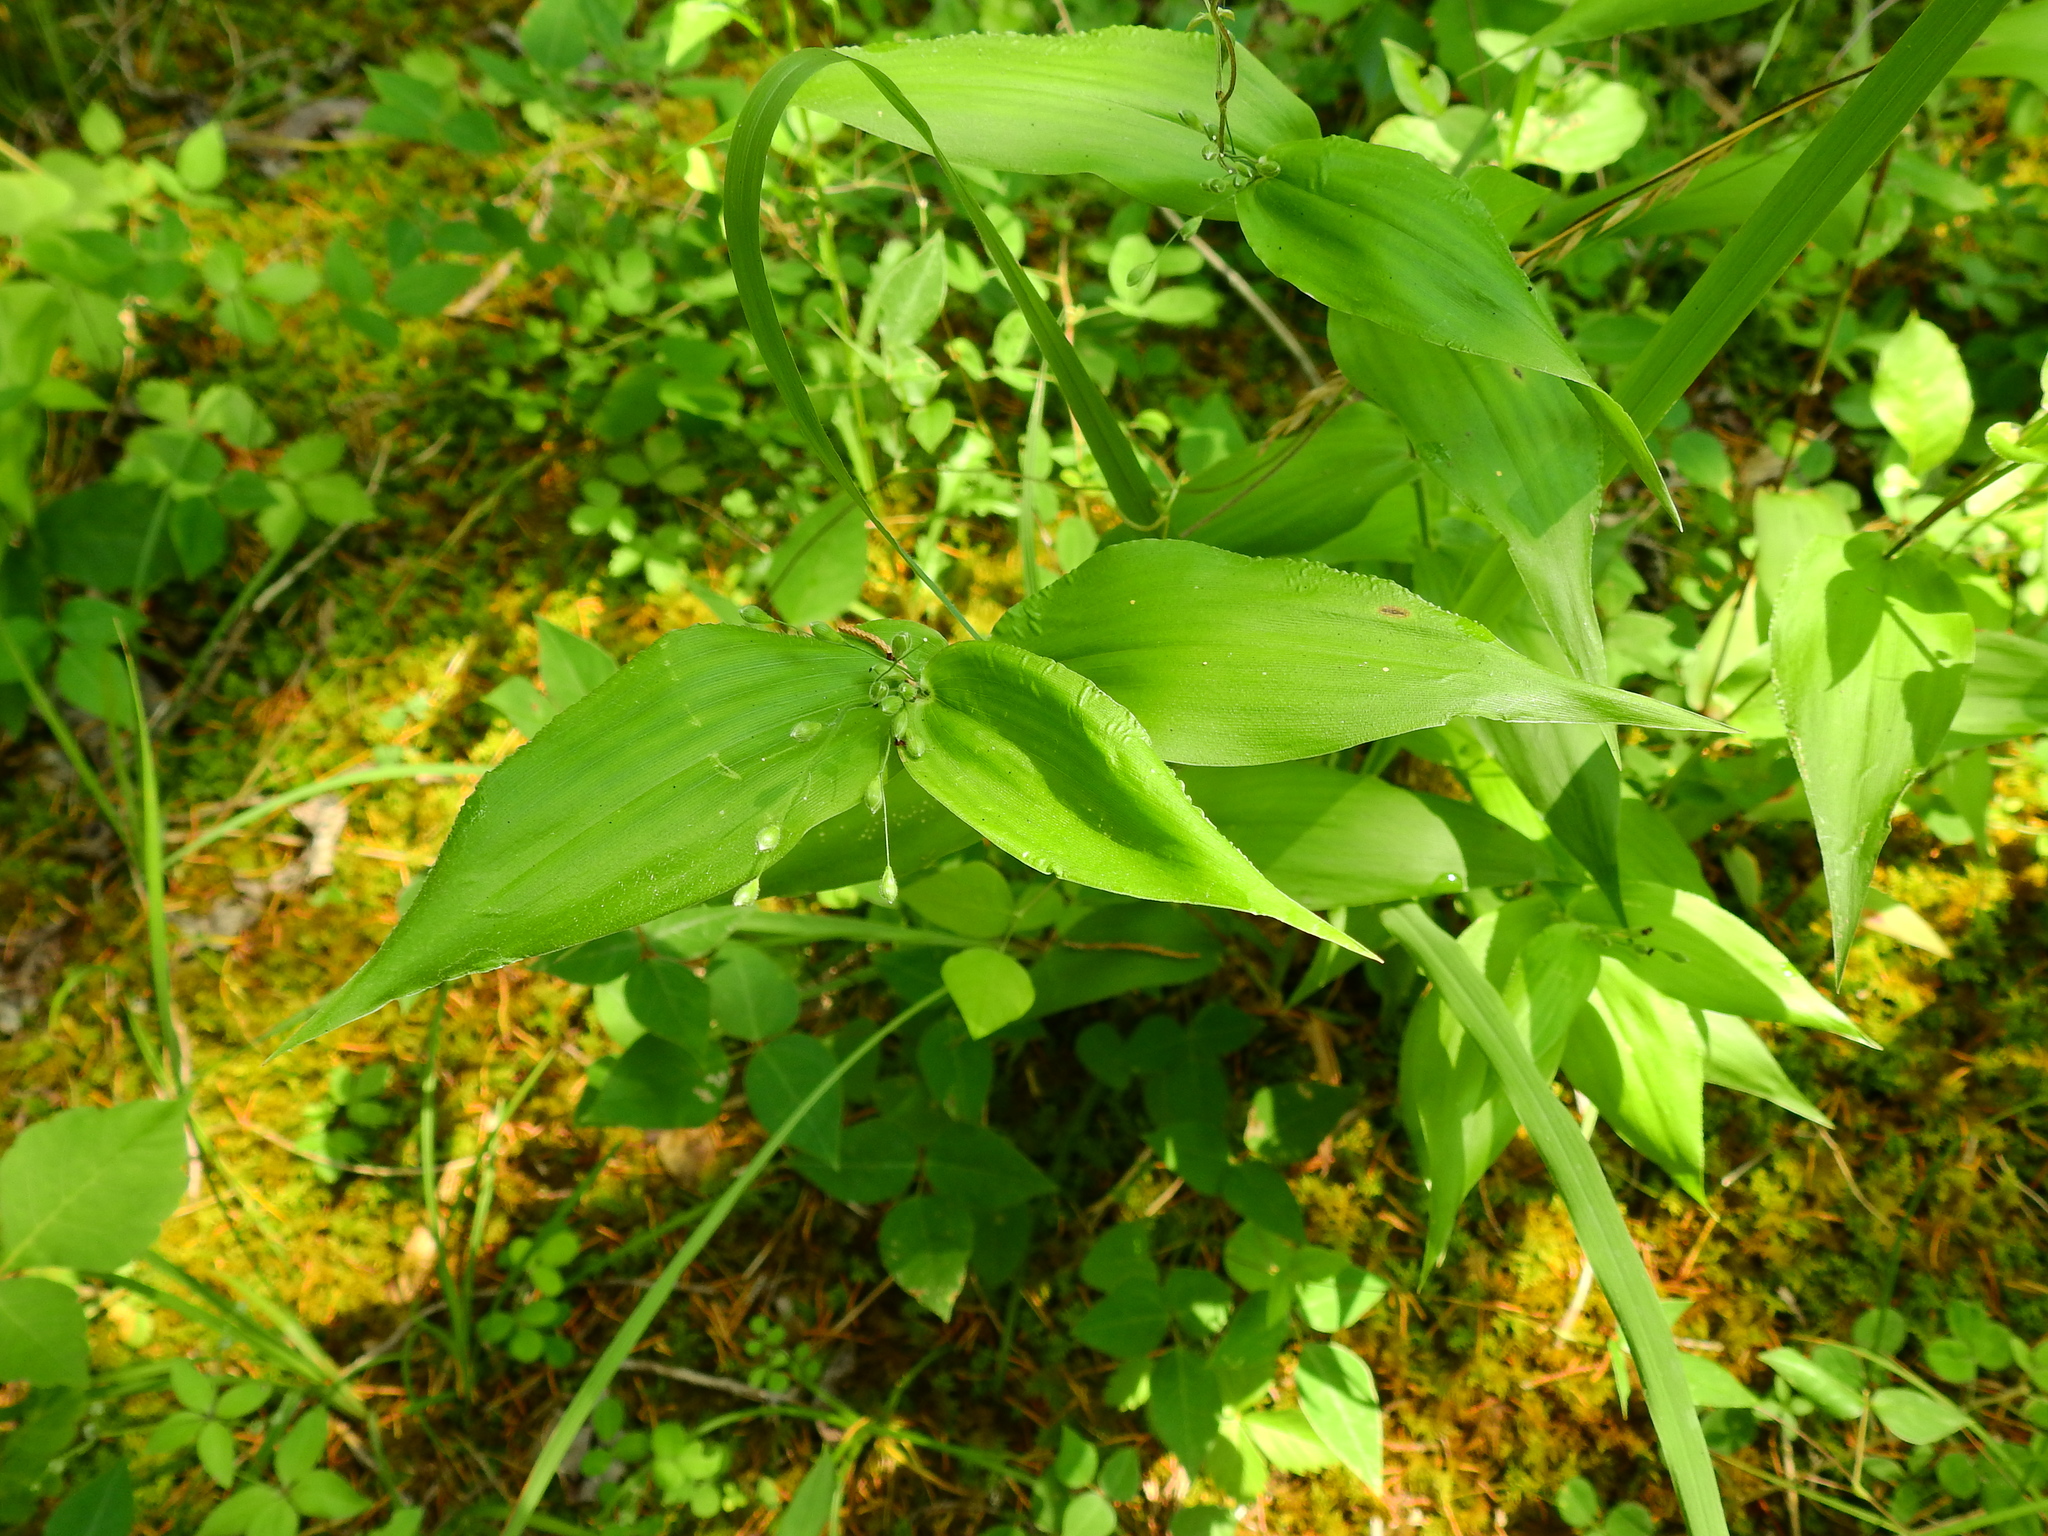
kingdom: Plantae
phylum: Tracheophyta
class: Liliopsida
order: Poales
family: Poaceae
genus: Dichanthelium
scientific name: Dichanthelium boscii
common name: Bosc's panic grass
